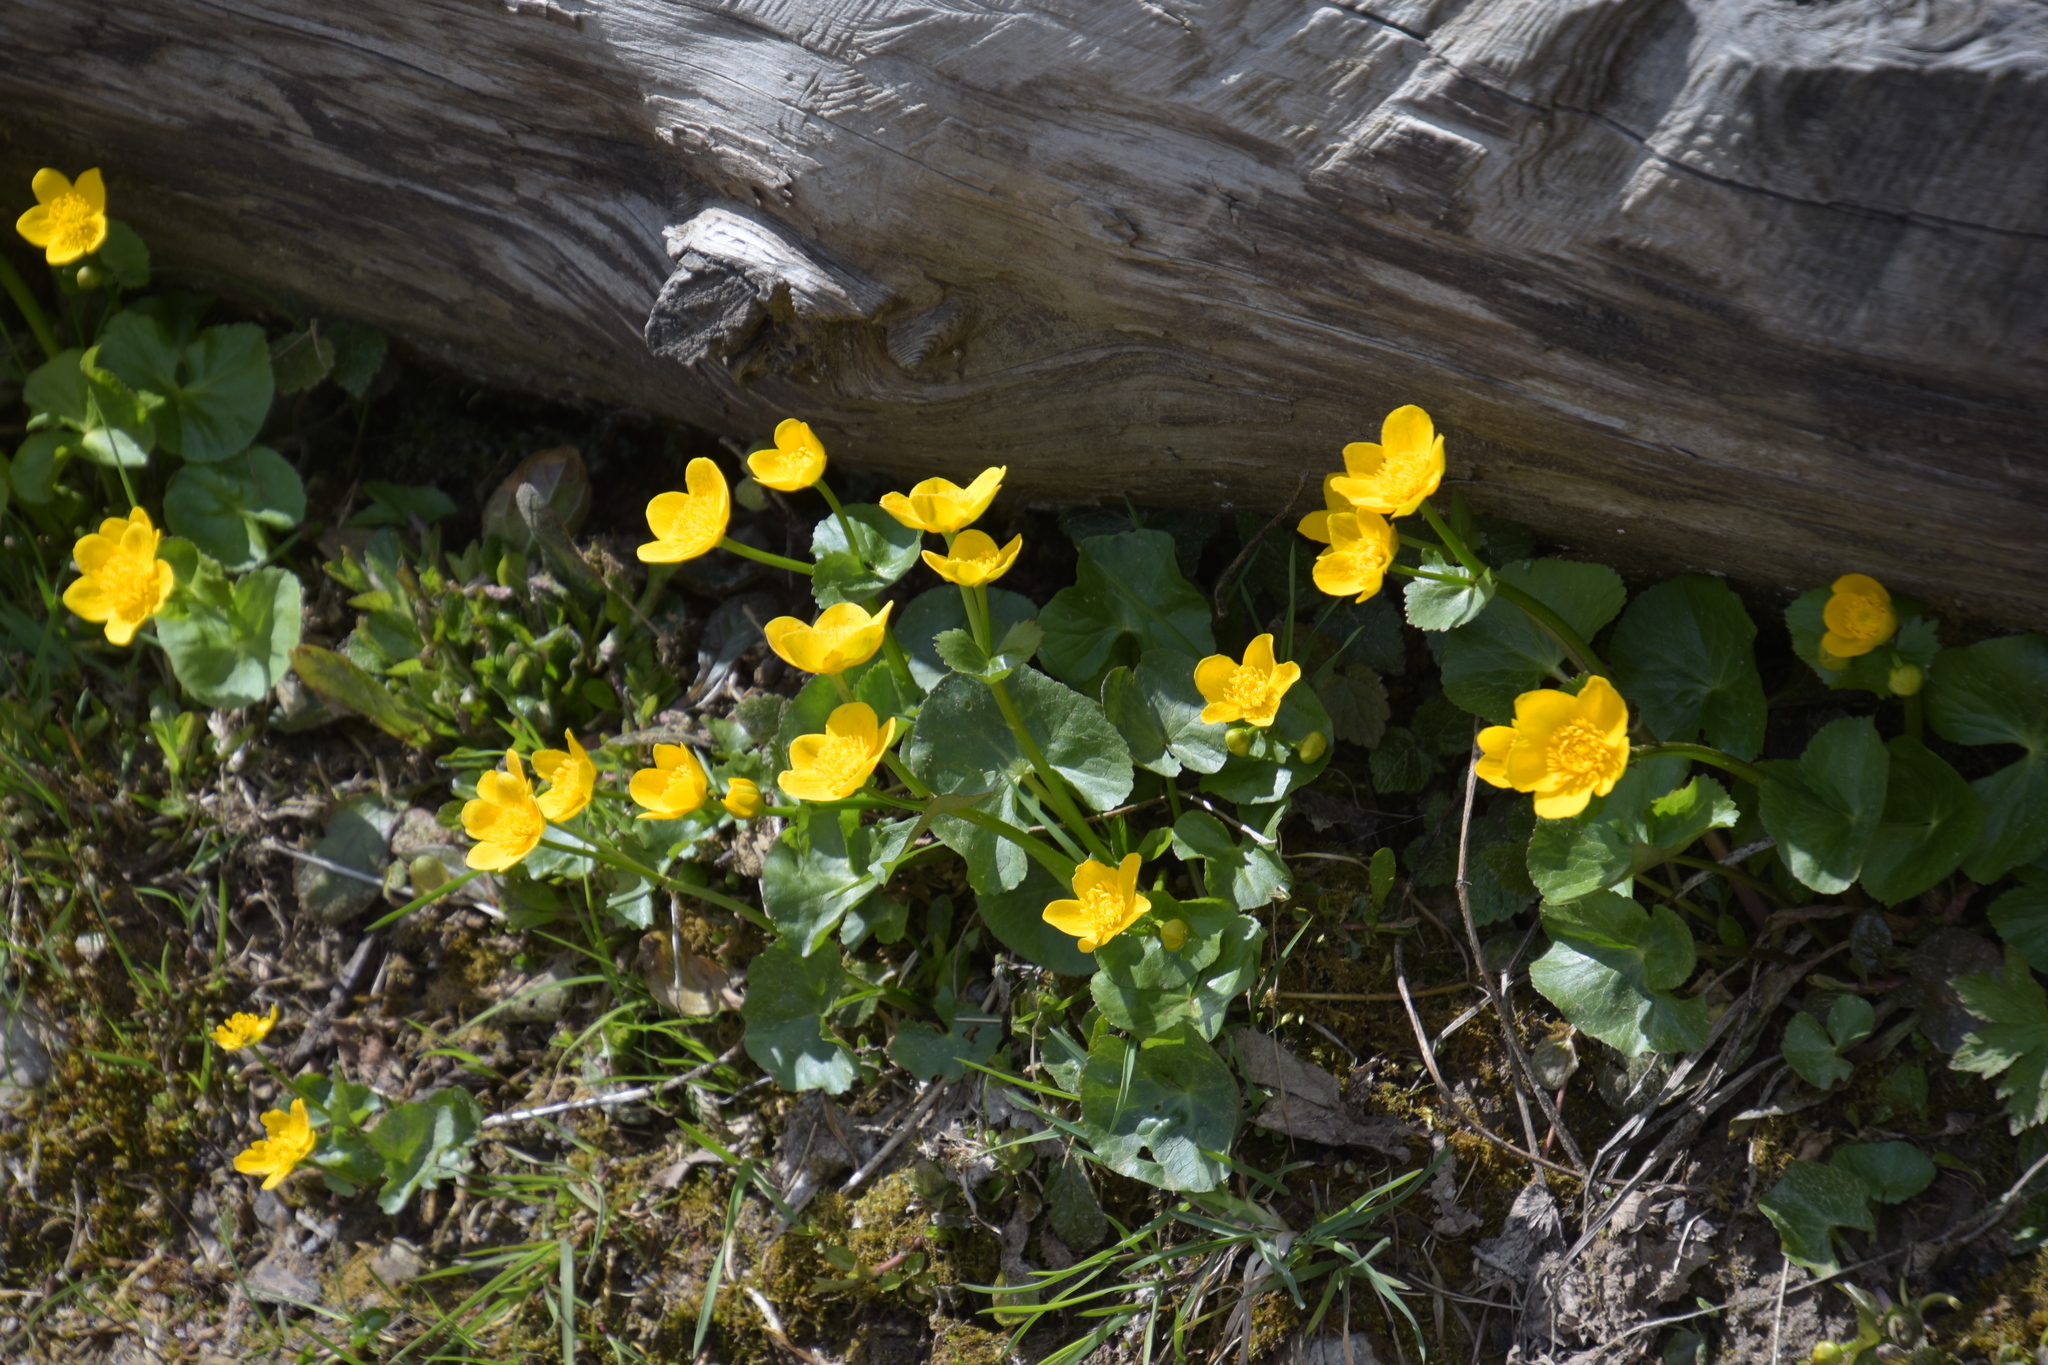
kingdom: Plantae
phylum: Tracheophyta
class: Magnoliopsida
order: Ranunculales
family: Ranunculaceae
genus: Caltha
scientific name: Caltha palustris
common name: Marsh marigold
